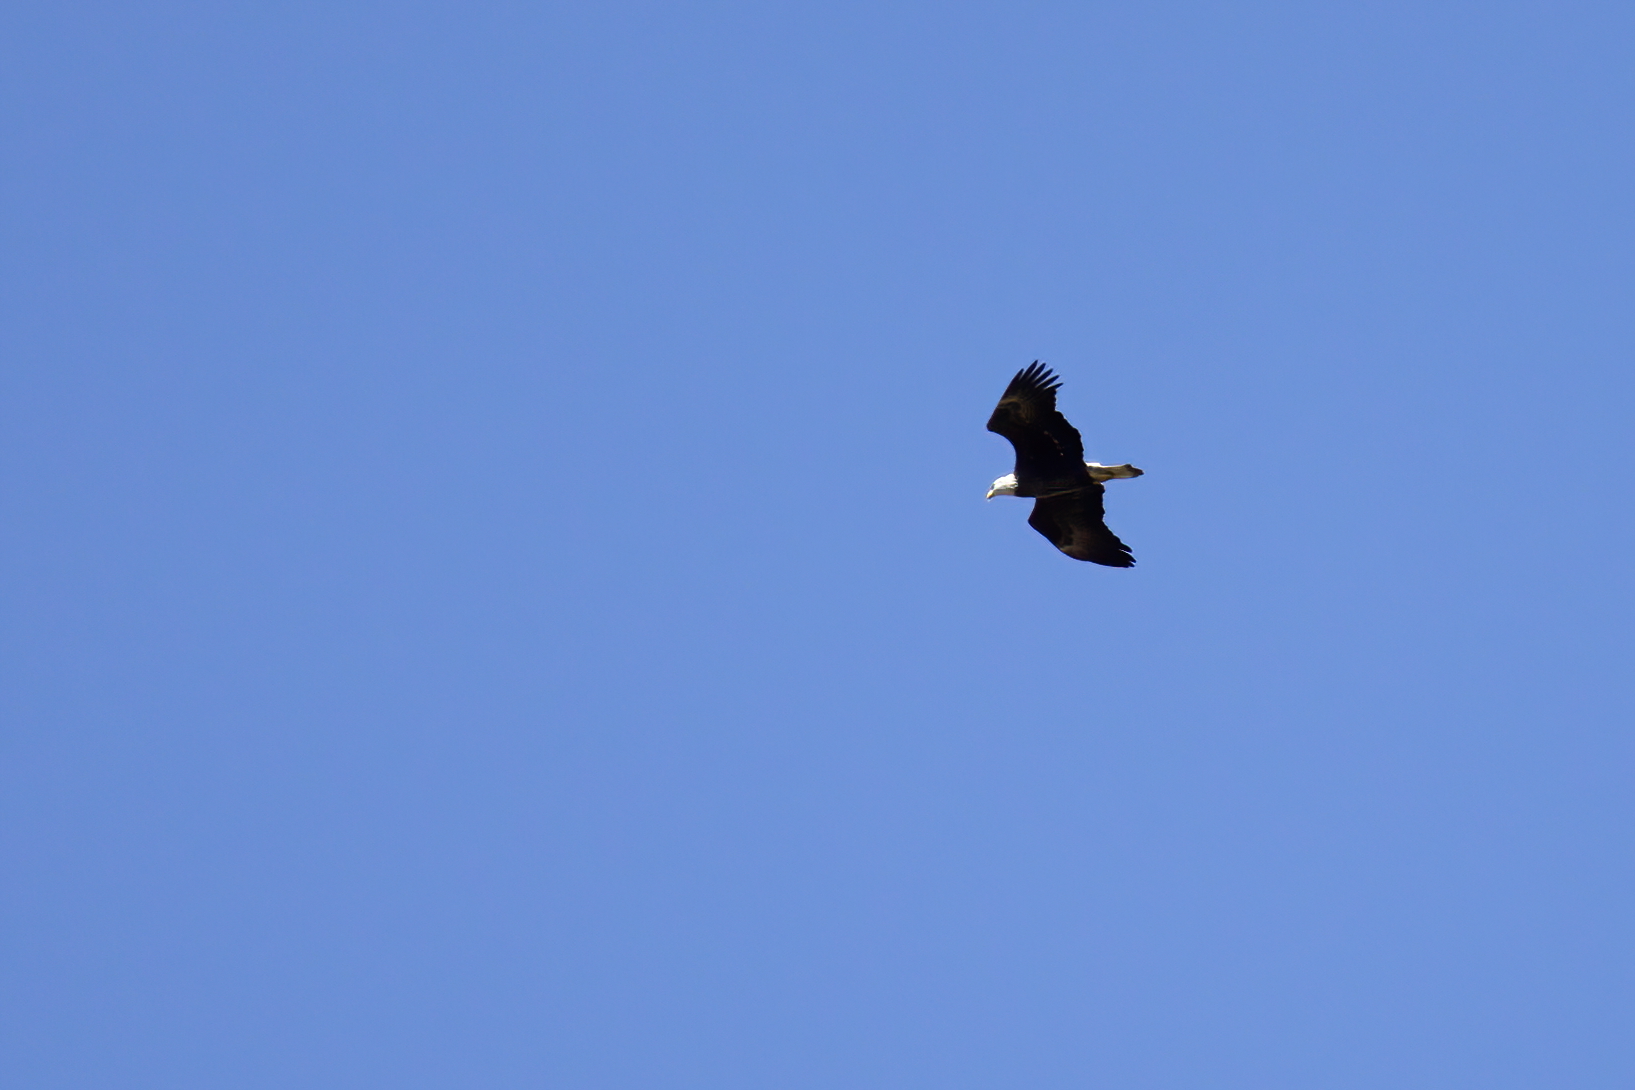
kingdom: Animalia
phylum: Chordata
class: Aves
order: Accipitriformes
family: Accipitridae
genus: Haliaeetus
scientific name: Haliaeetus leucocephalus
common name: Bald eagle
